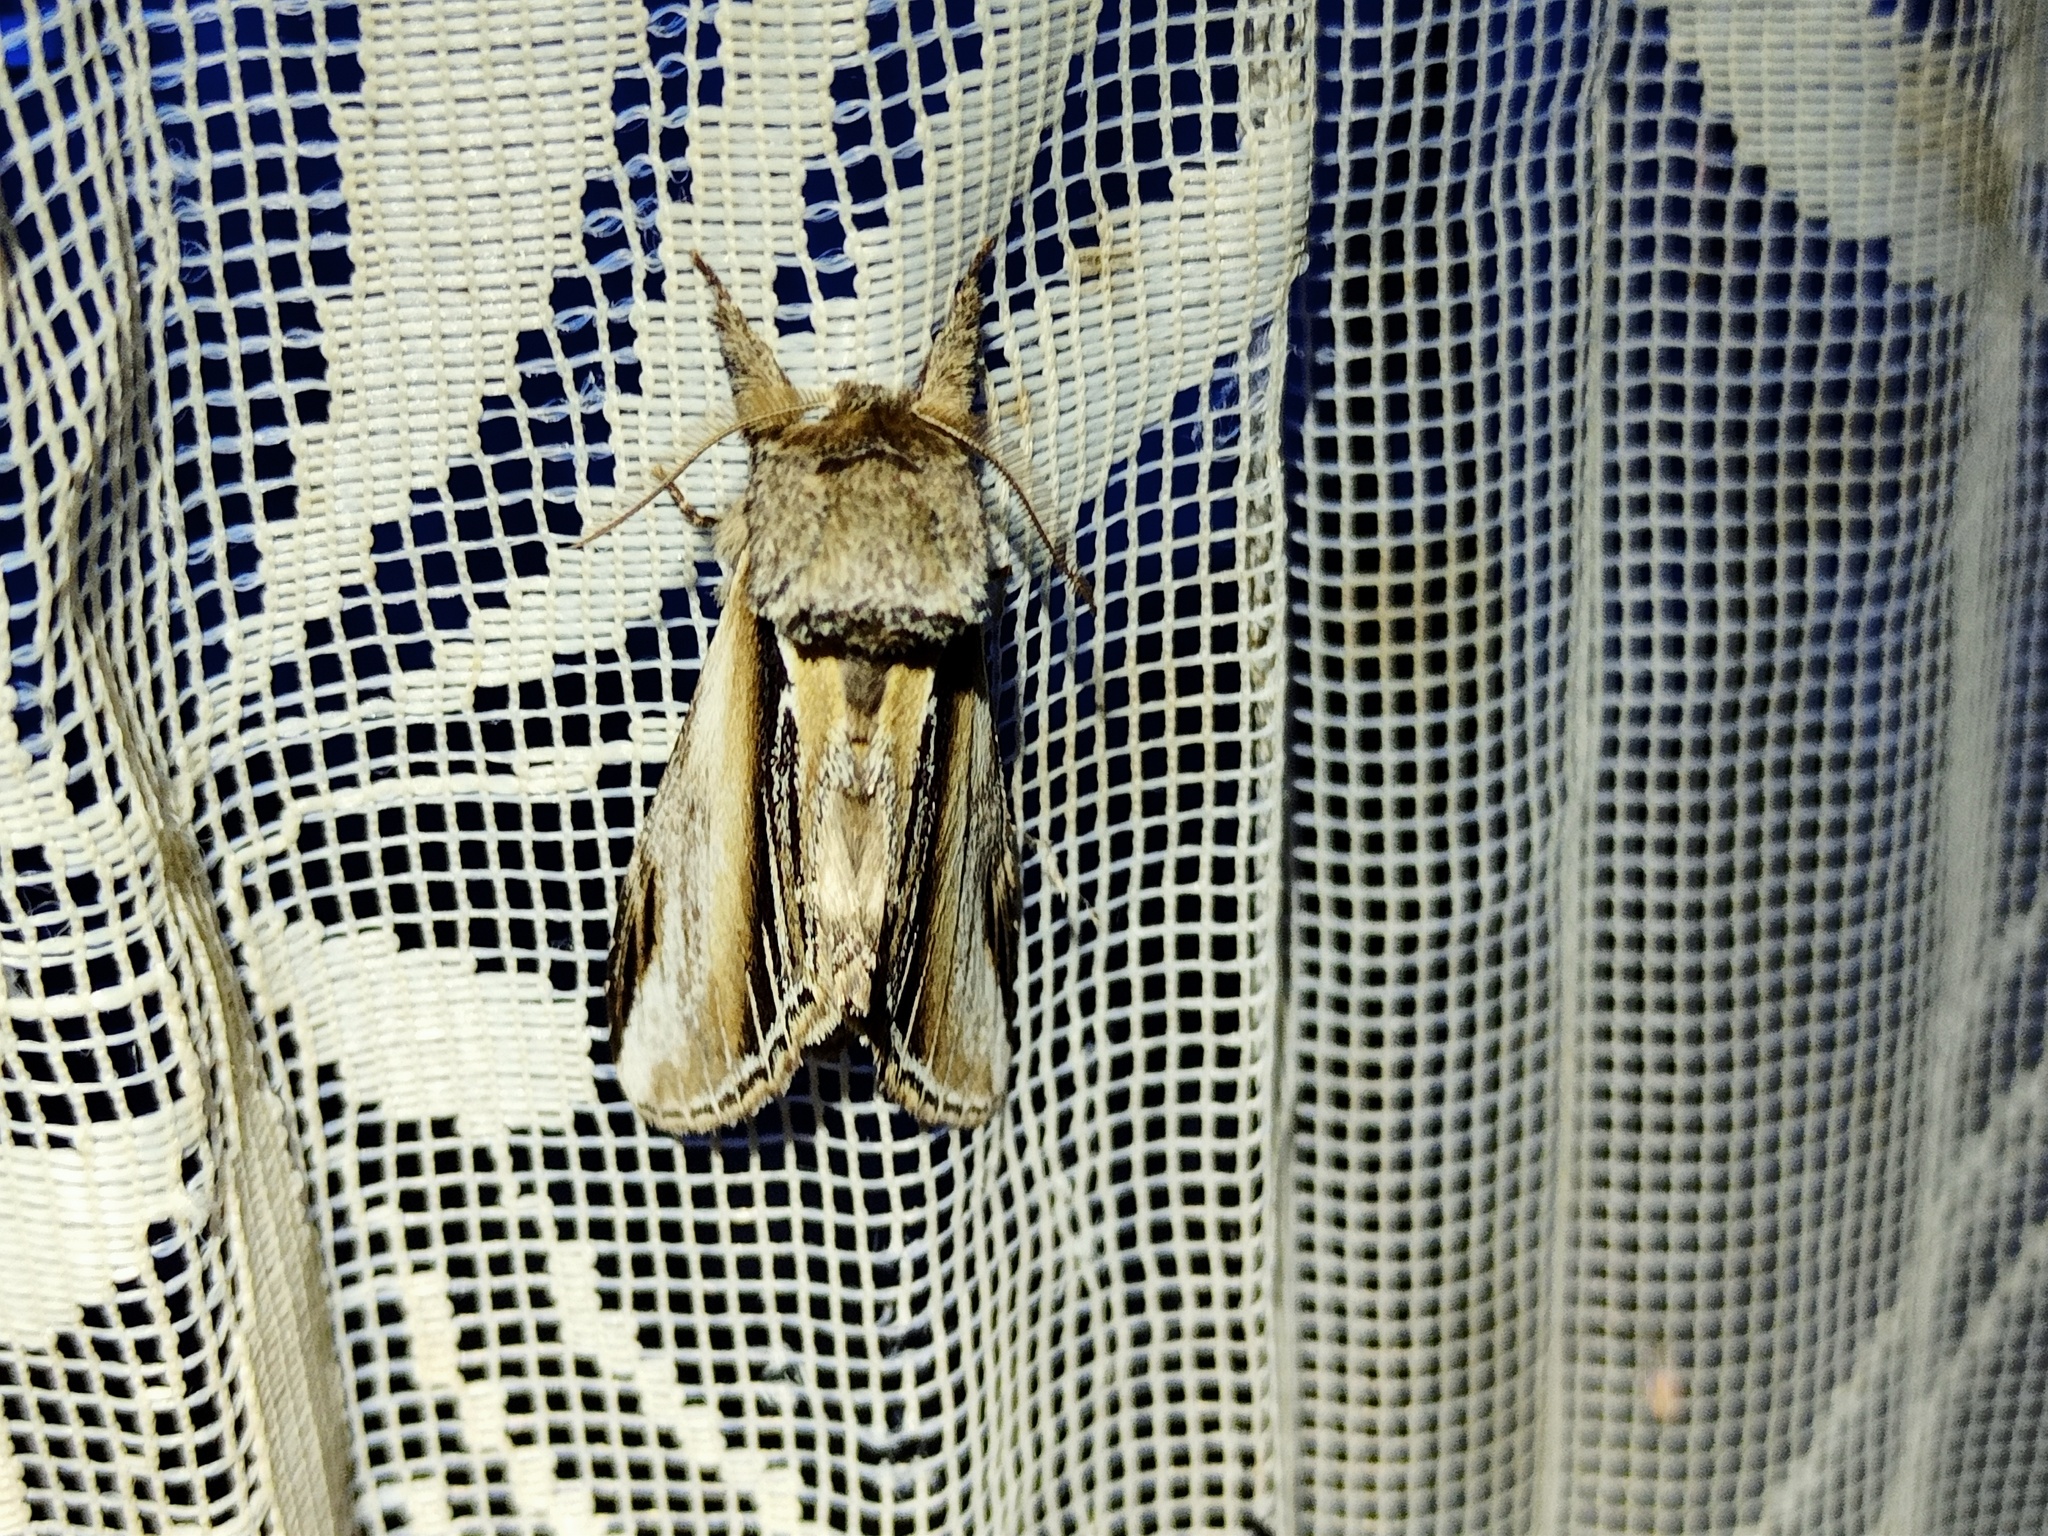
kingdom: Animalia
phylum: Arthropoda
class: Insecta
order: Lepidoptera
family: Notodontidae
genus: Pheosia
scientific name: Pheosia tremula
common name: Swallow prominent
